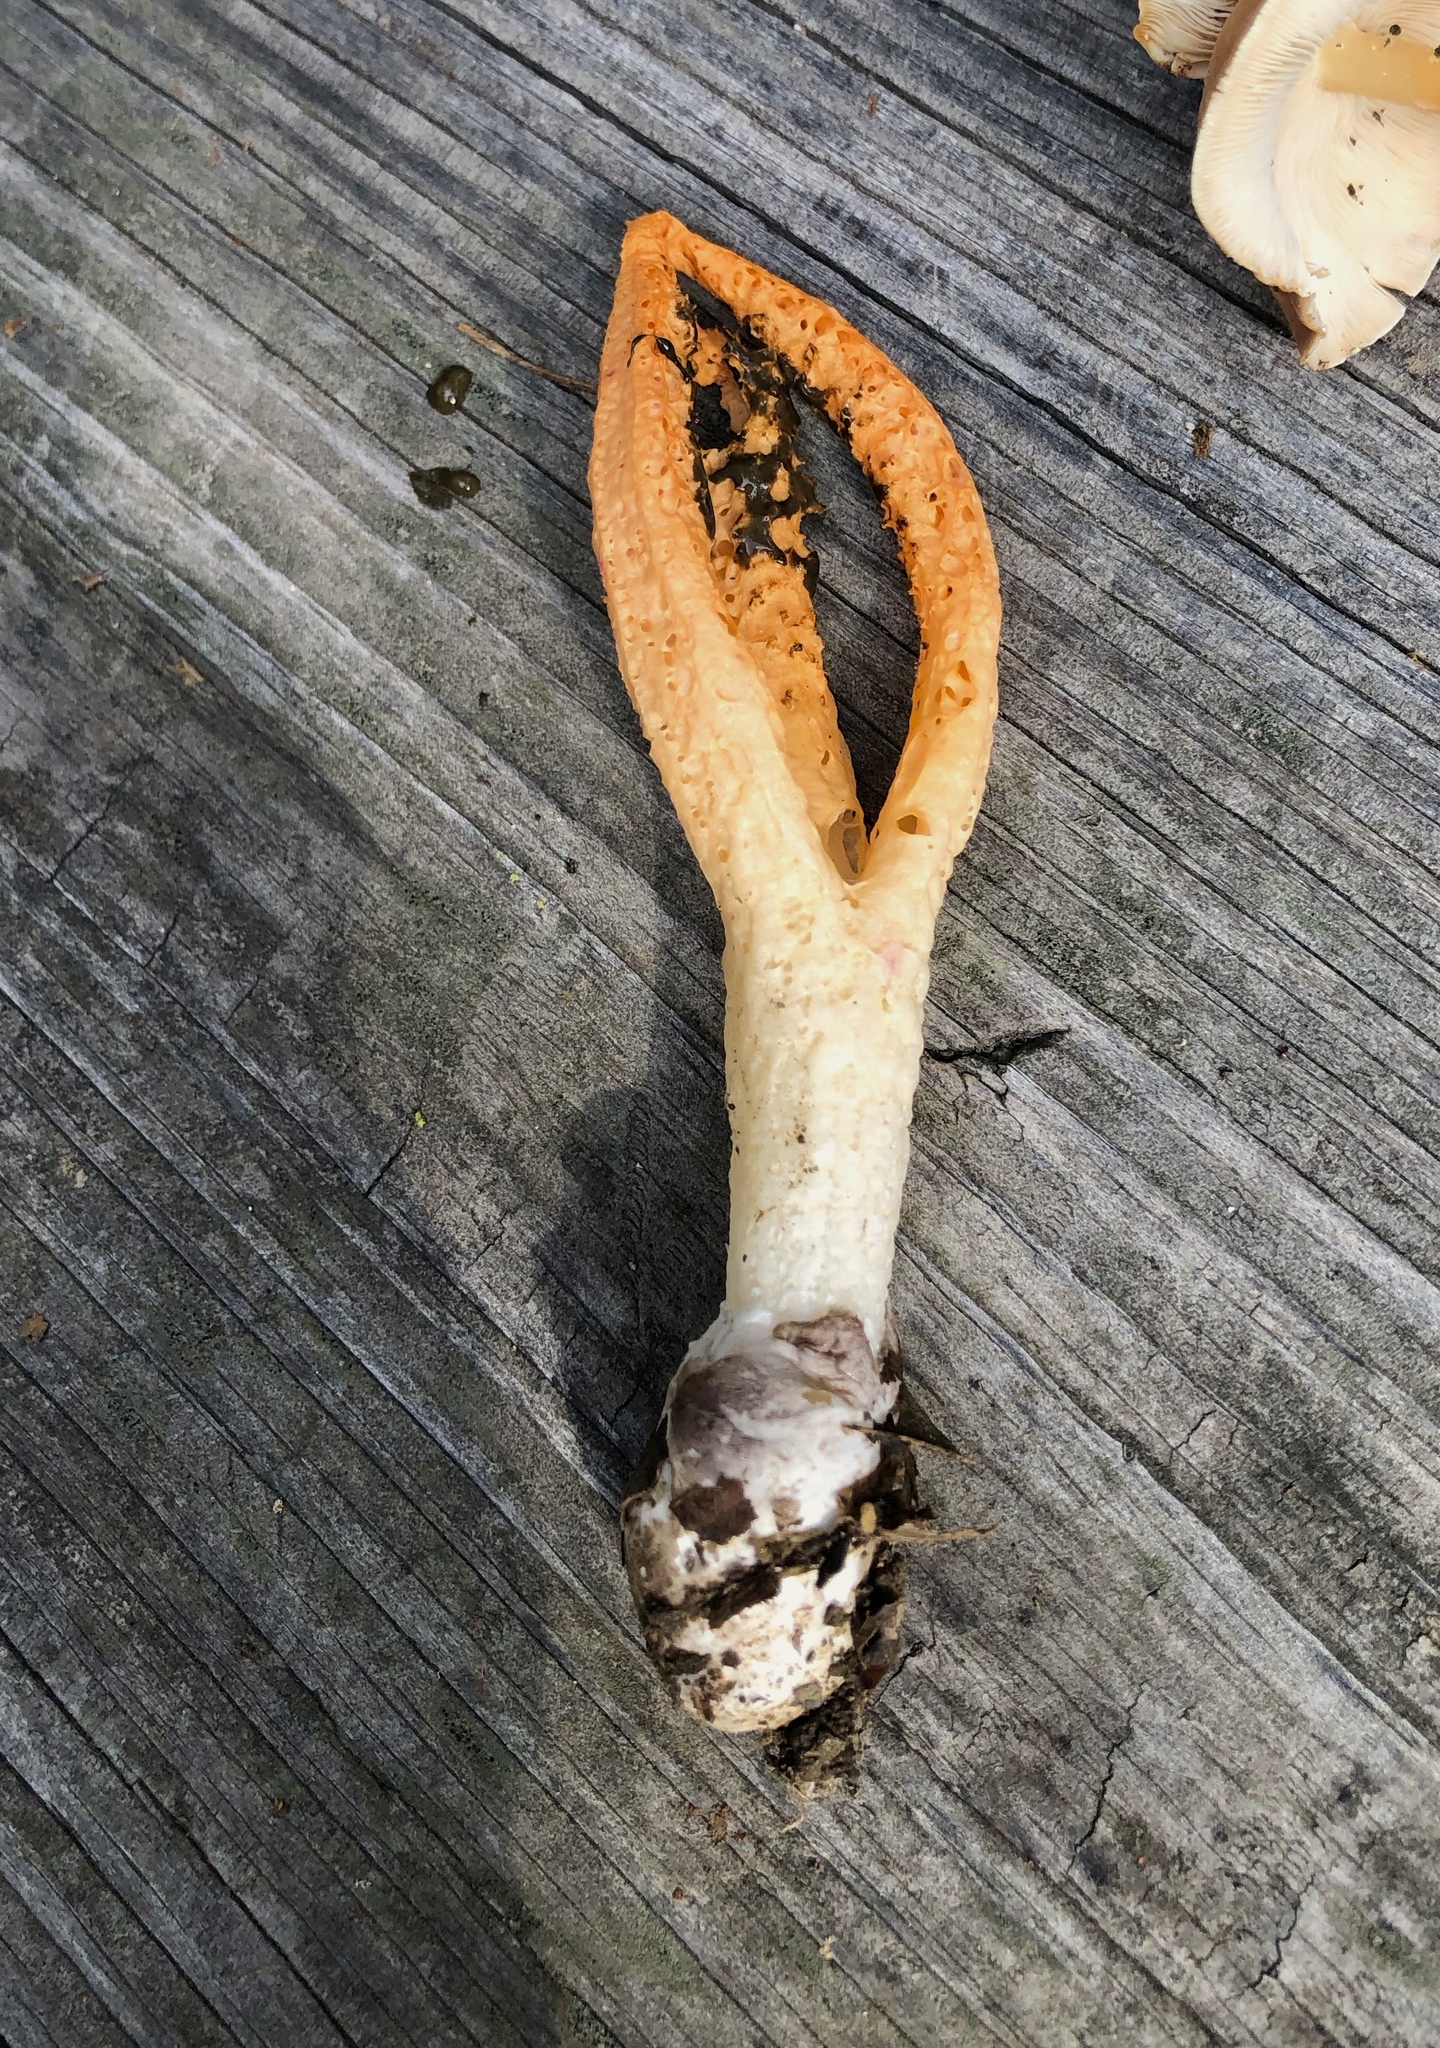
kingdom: Fungi
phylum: Basidiomycota
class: Agaricomycetes
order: Phallales
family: Phallaceae
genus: Pseudocolus
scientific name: Pseudocolus fusiformis
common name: Stinky squid
